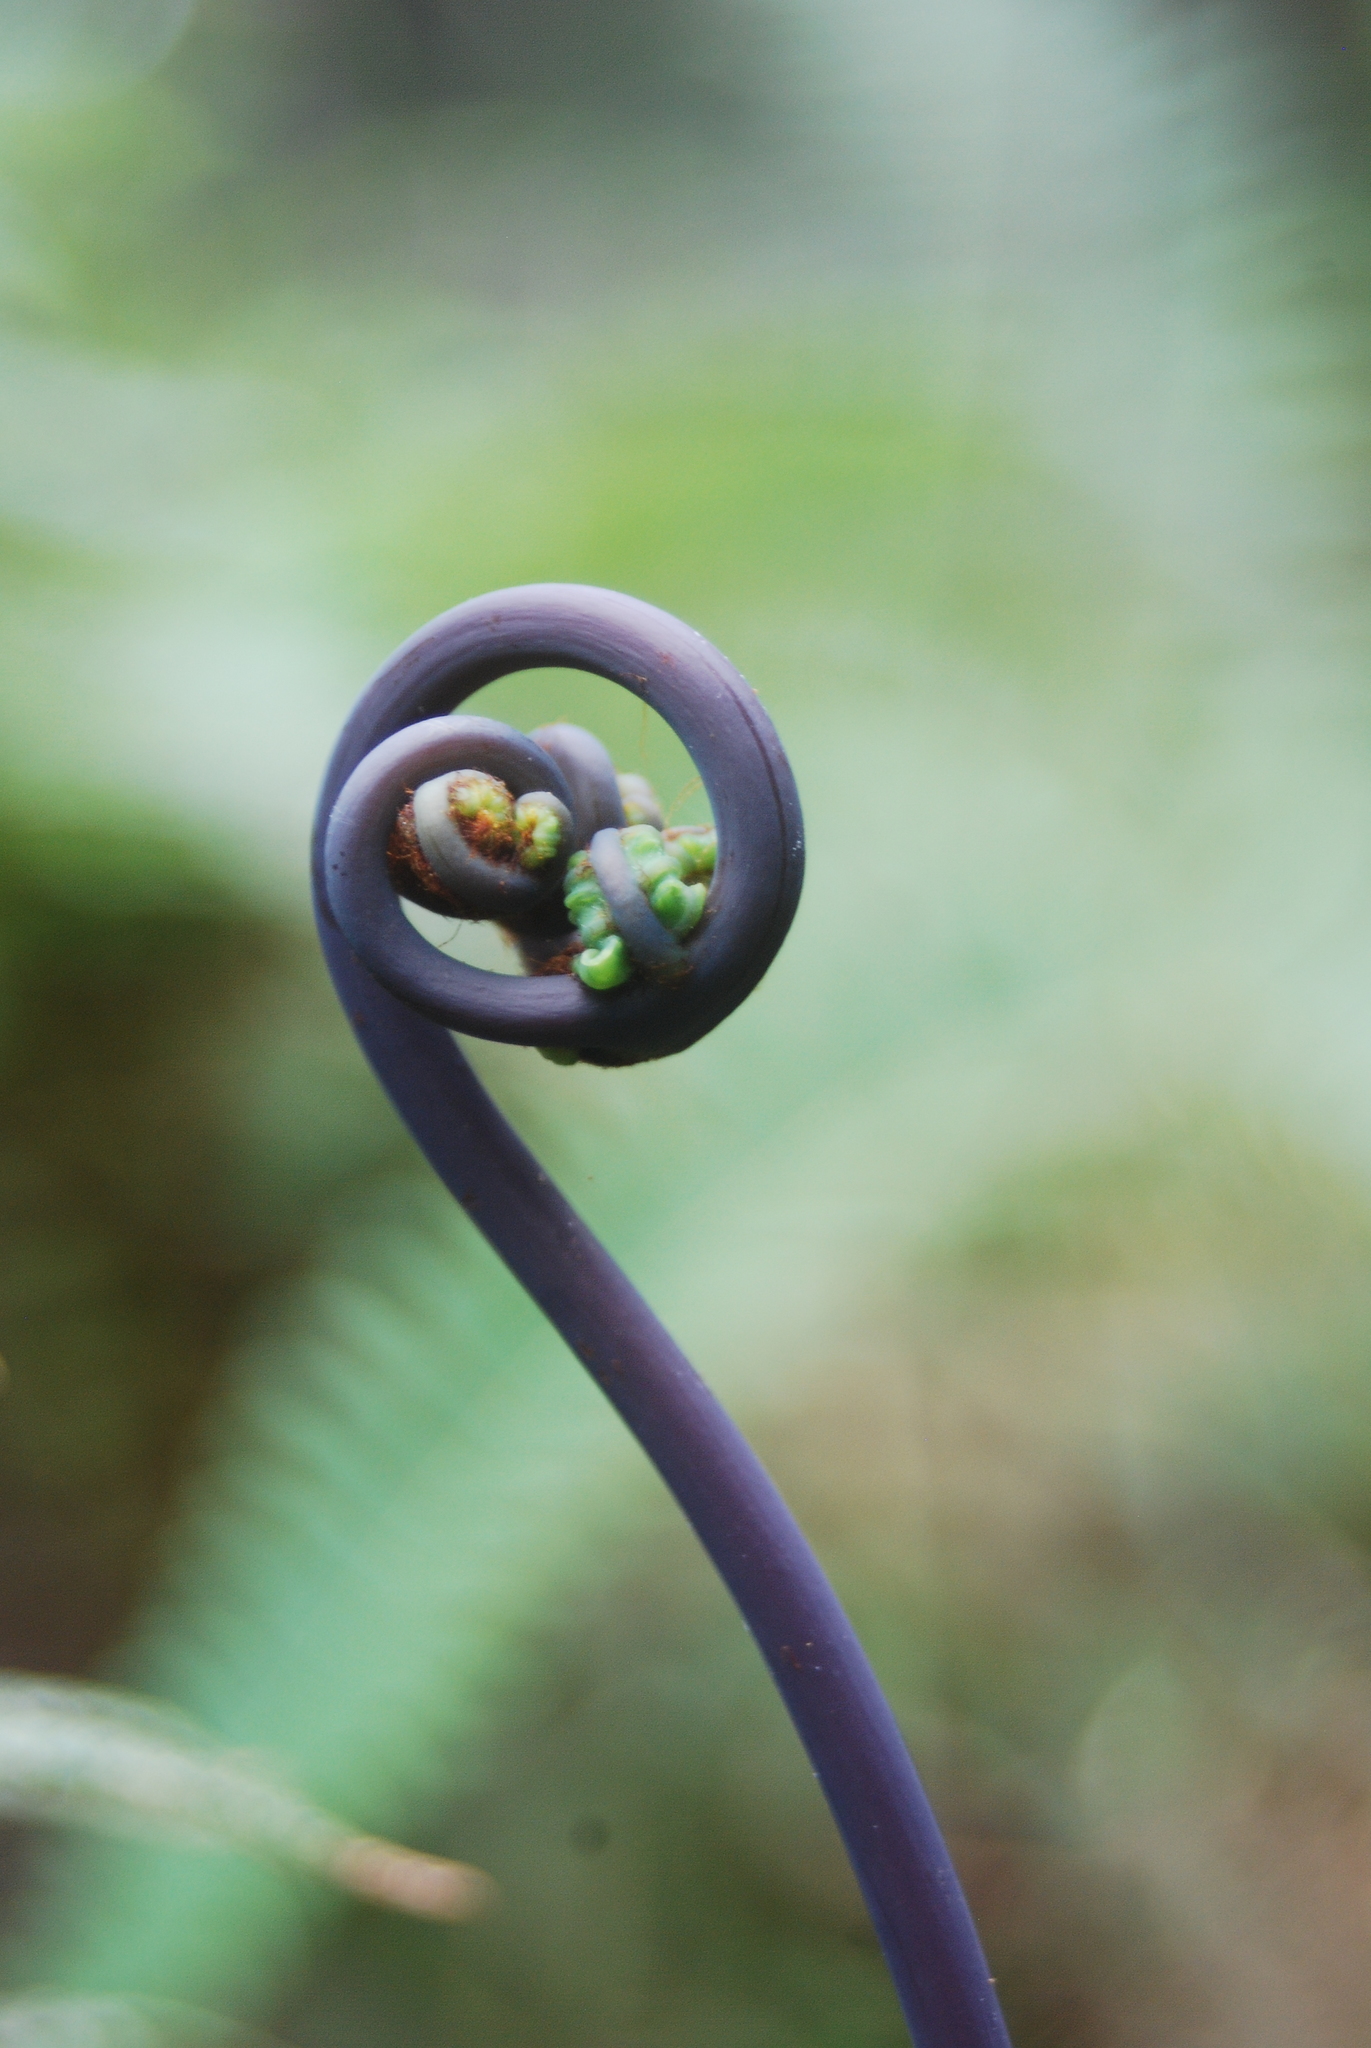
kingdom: Plantae
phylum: Tracheophyta
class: Polypodiopsida
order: Gleicheniales
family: Gleicheniaceae
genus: Dicranopteris
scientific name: Dicranopteris linearis
